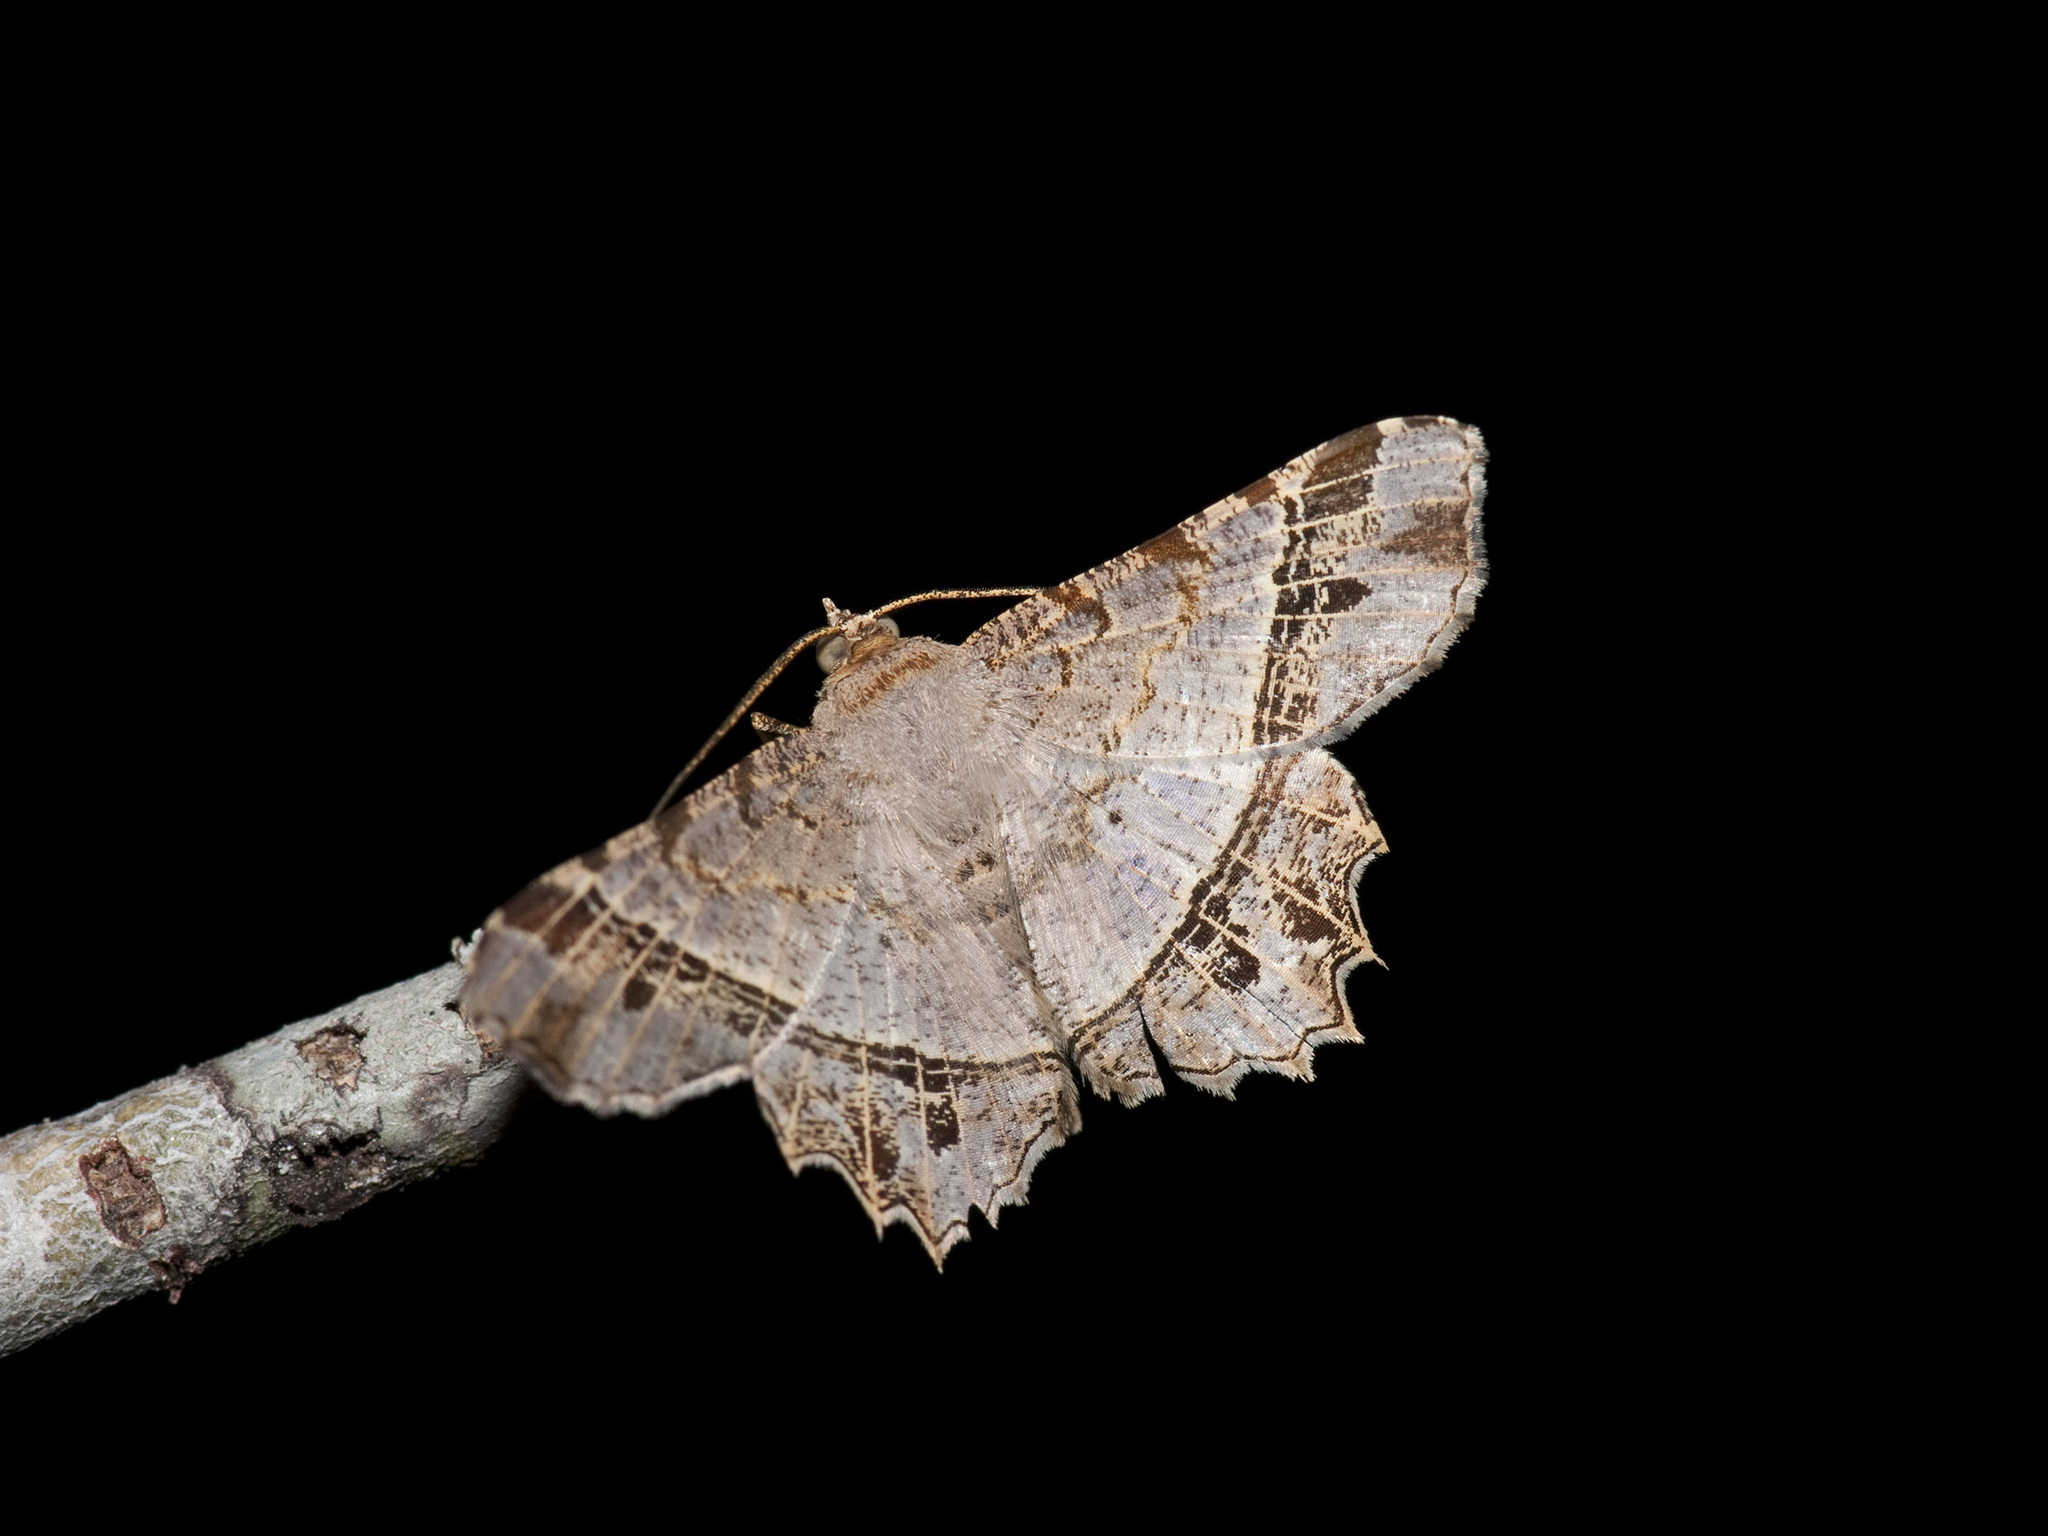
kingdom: Animalia
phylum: Arthropoda
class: Insecta
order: Lepidoptera
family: Geometridae
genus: Chiasmia
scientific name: Chiasmia emersaria
